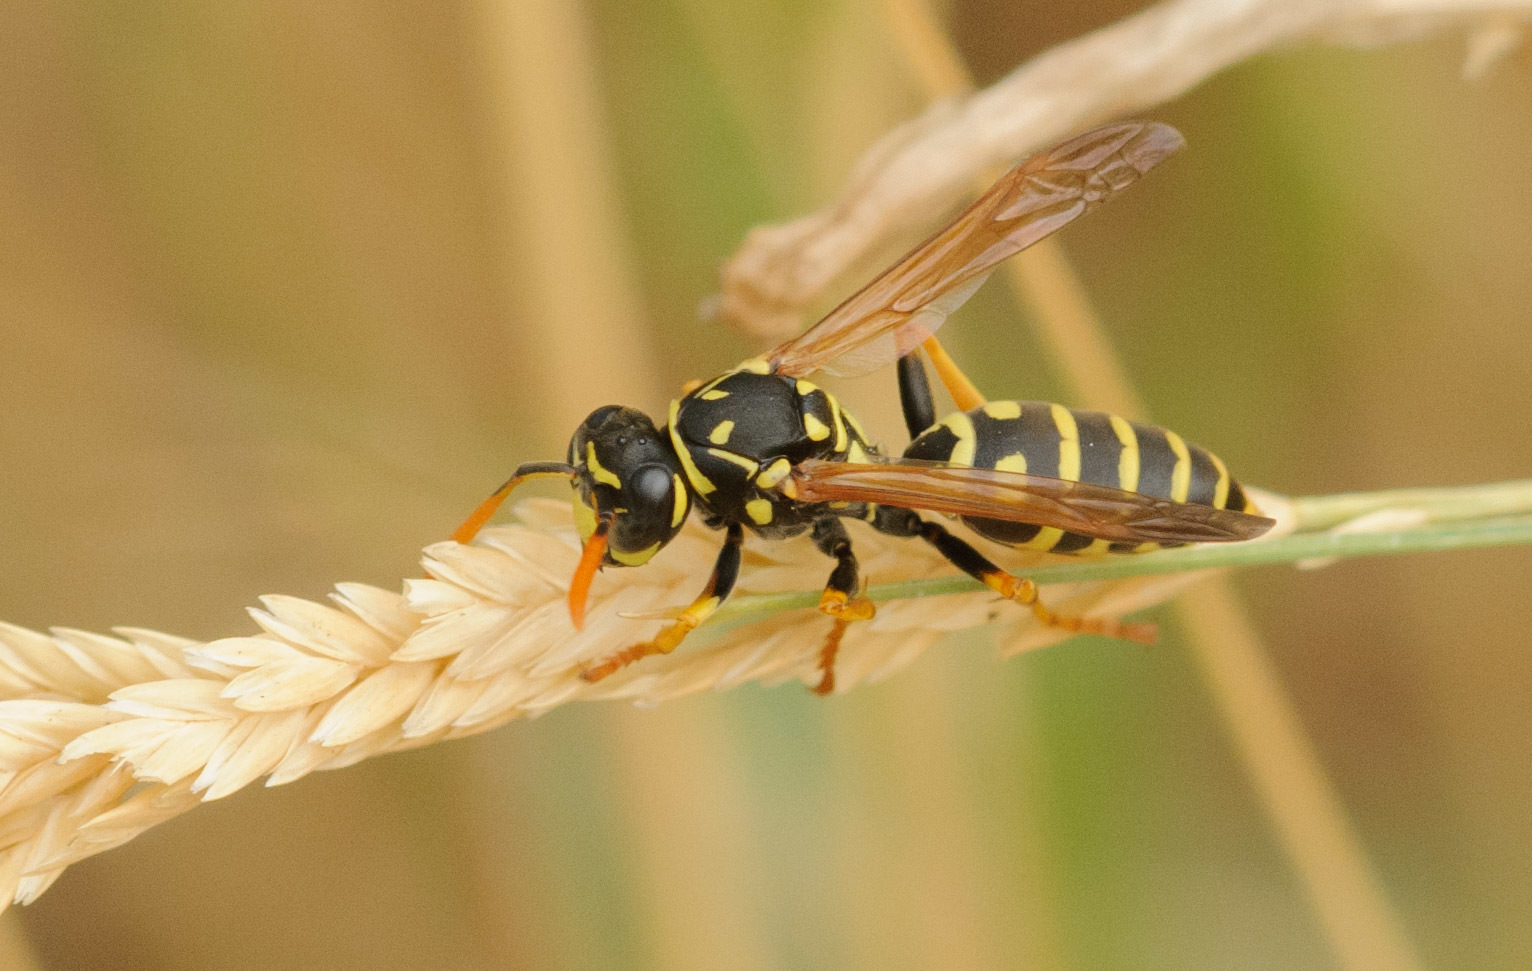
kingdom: Animalia
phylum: Arthropoda
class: Insecta
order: Hymenoptera
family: Eumenidae
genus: Polistes
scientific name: Polistes dominula
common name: Paper wasp
